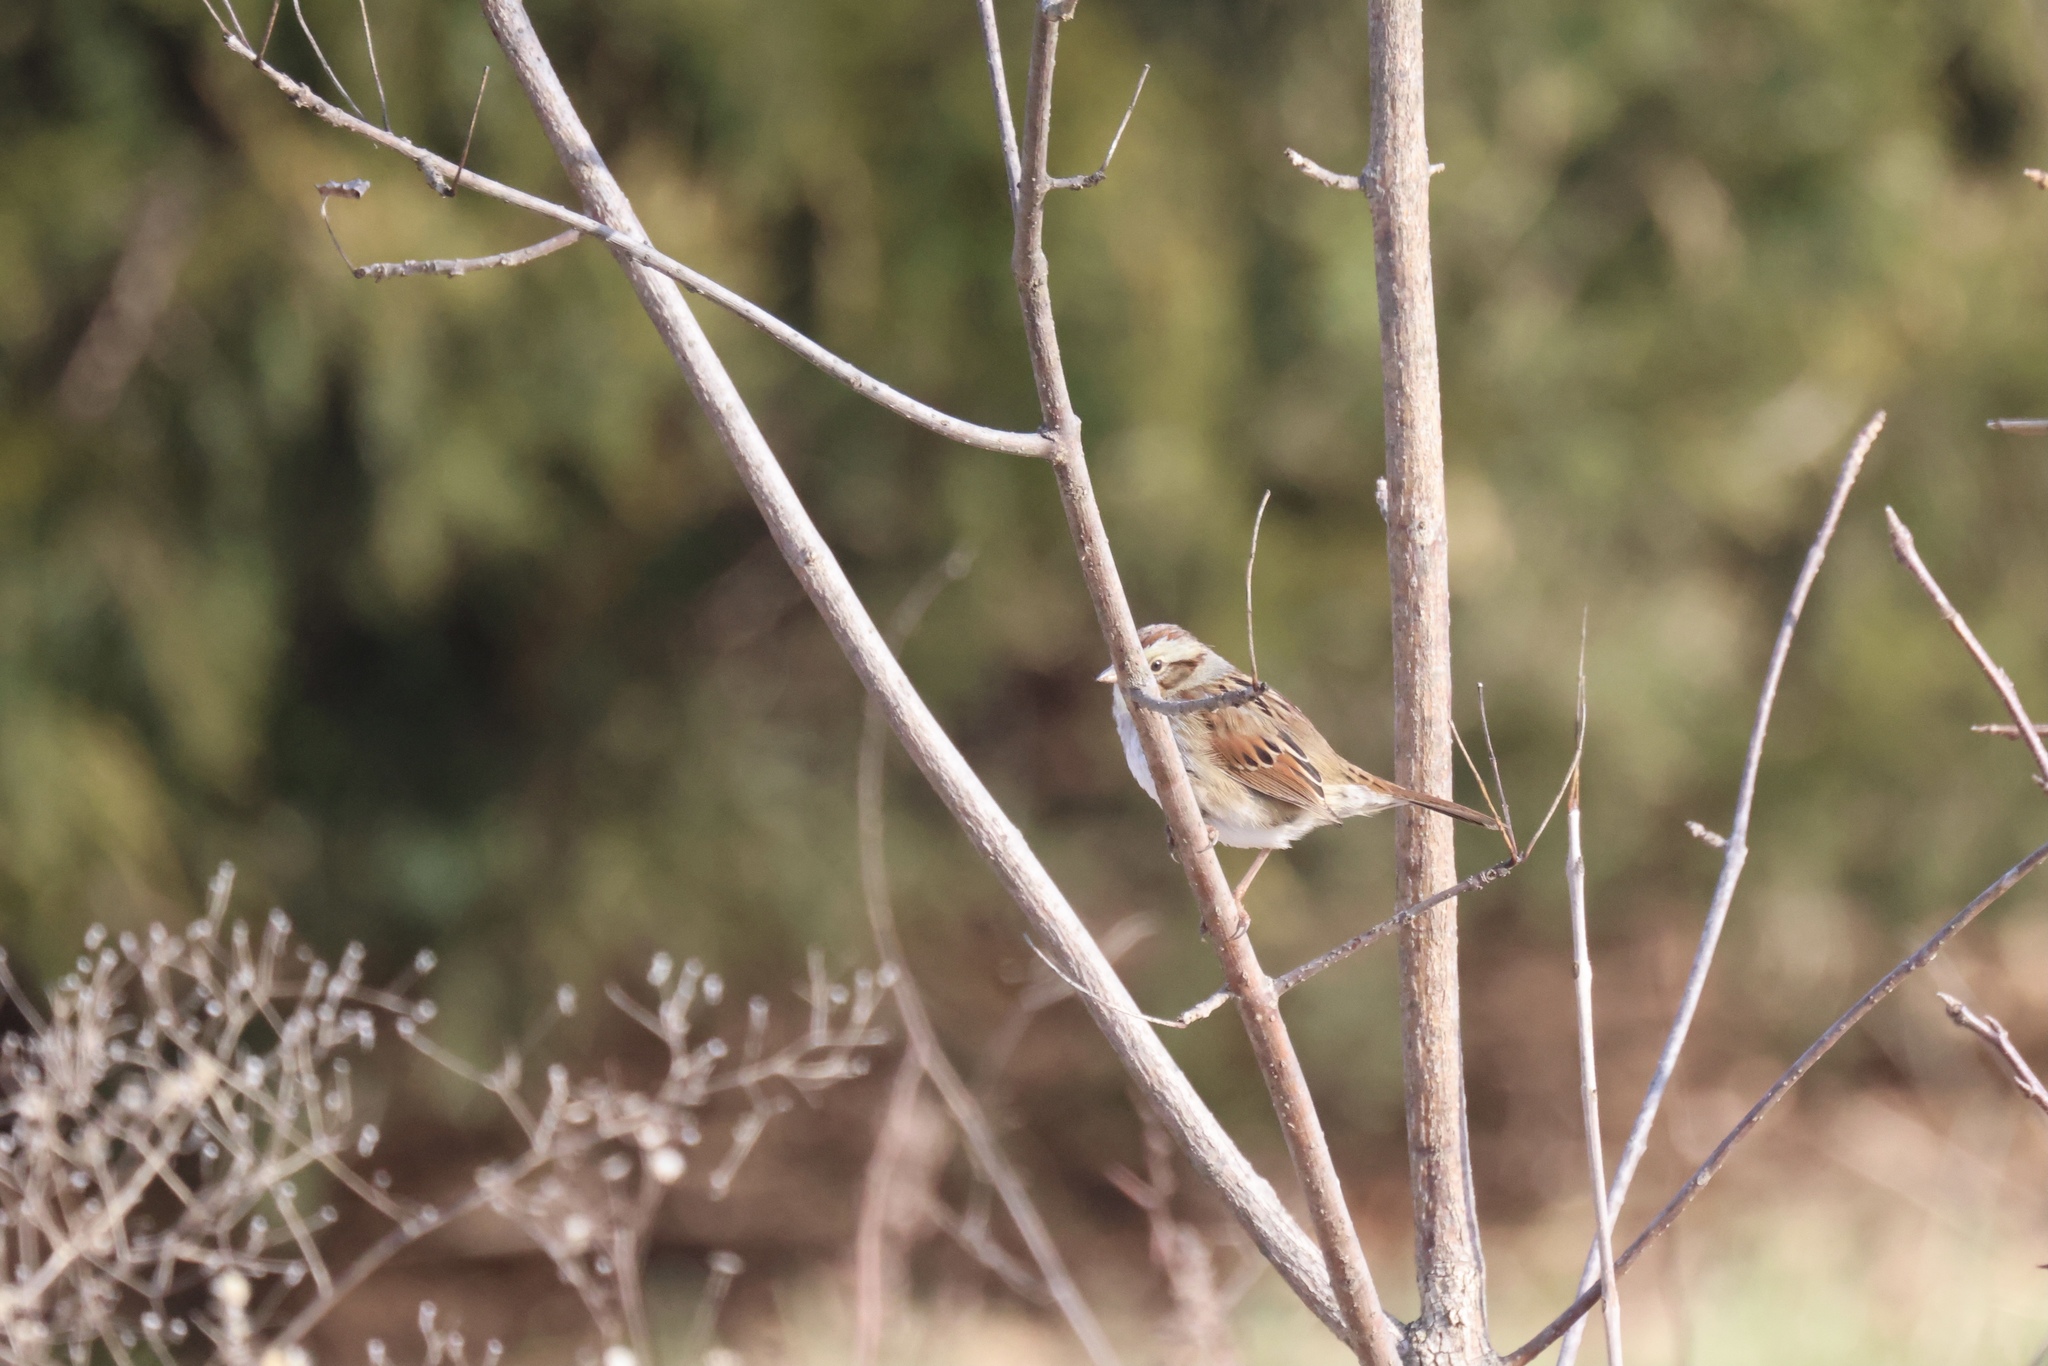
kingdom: Animalia
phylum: Chordata
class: Aves
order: Passeriformes
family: Passerellidae
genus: Melospiza
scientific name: Melospiza georgiana
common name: Swamp sparrow
